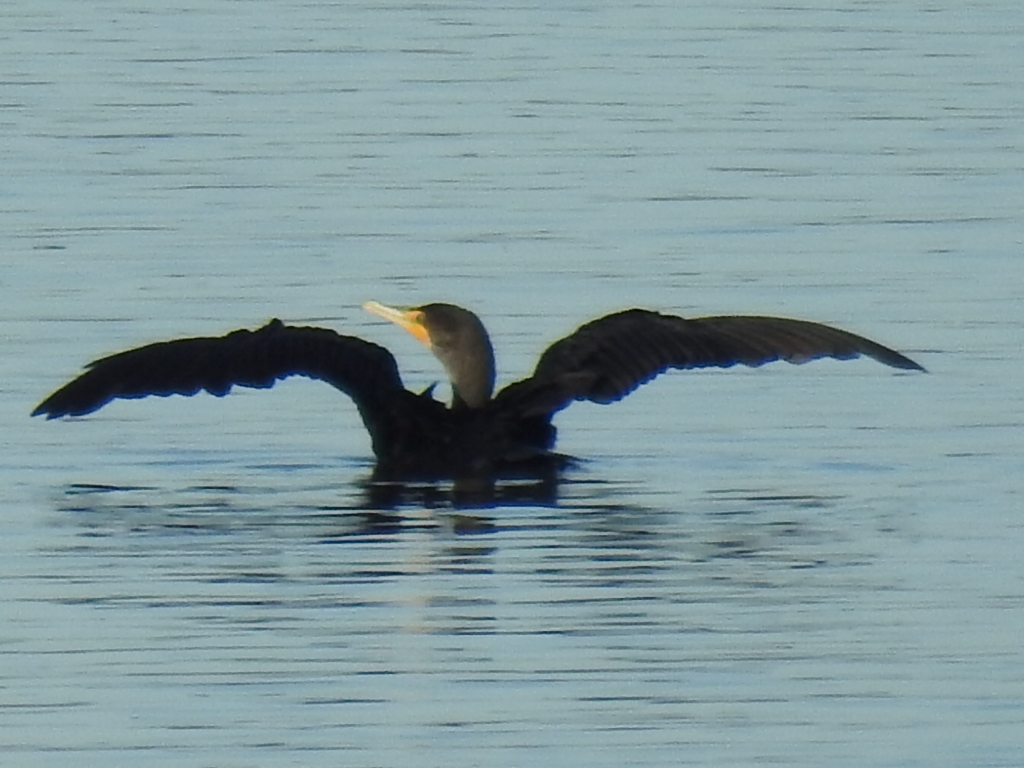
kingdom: Animalia
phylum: Chordata
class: Aves
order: Suliformes
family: Phalacrocoracidae
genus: Phalacrocorax
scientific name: Phalacrocorax auritus
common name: Double-crested cormorant
